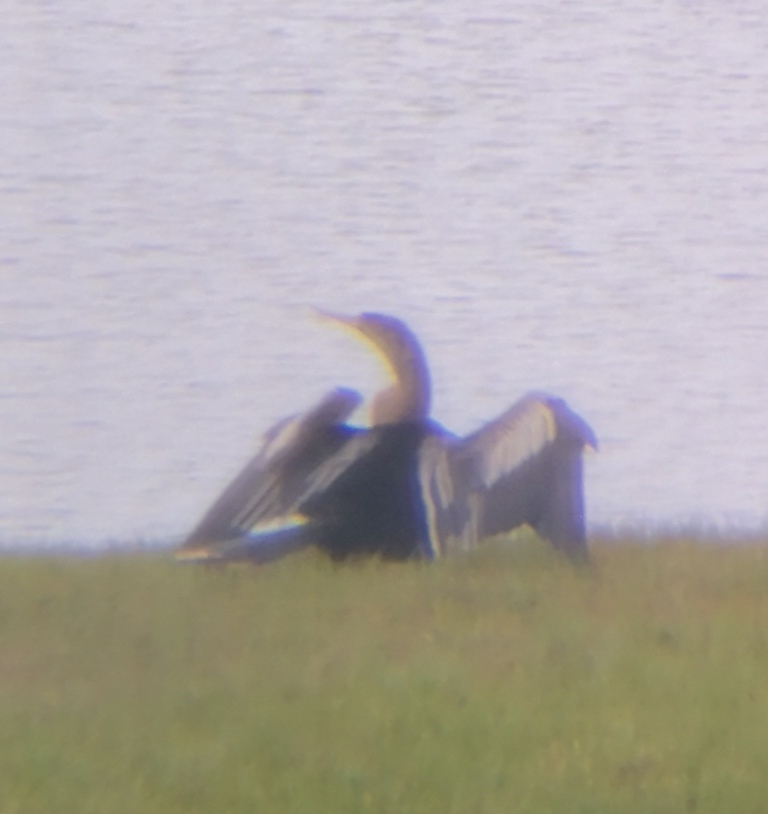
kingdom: Animalia
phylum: Chordata
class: Aves
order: Suliformes
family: Anhingidae
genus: Anhinga
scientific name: Anhinga anhinga
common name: Anhinga
